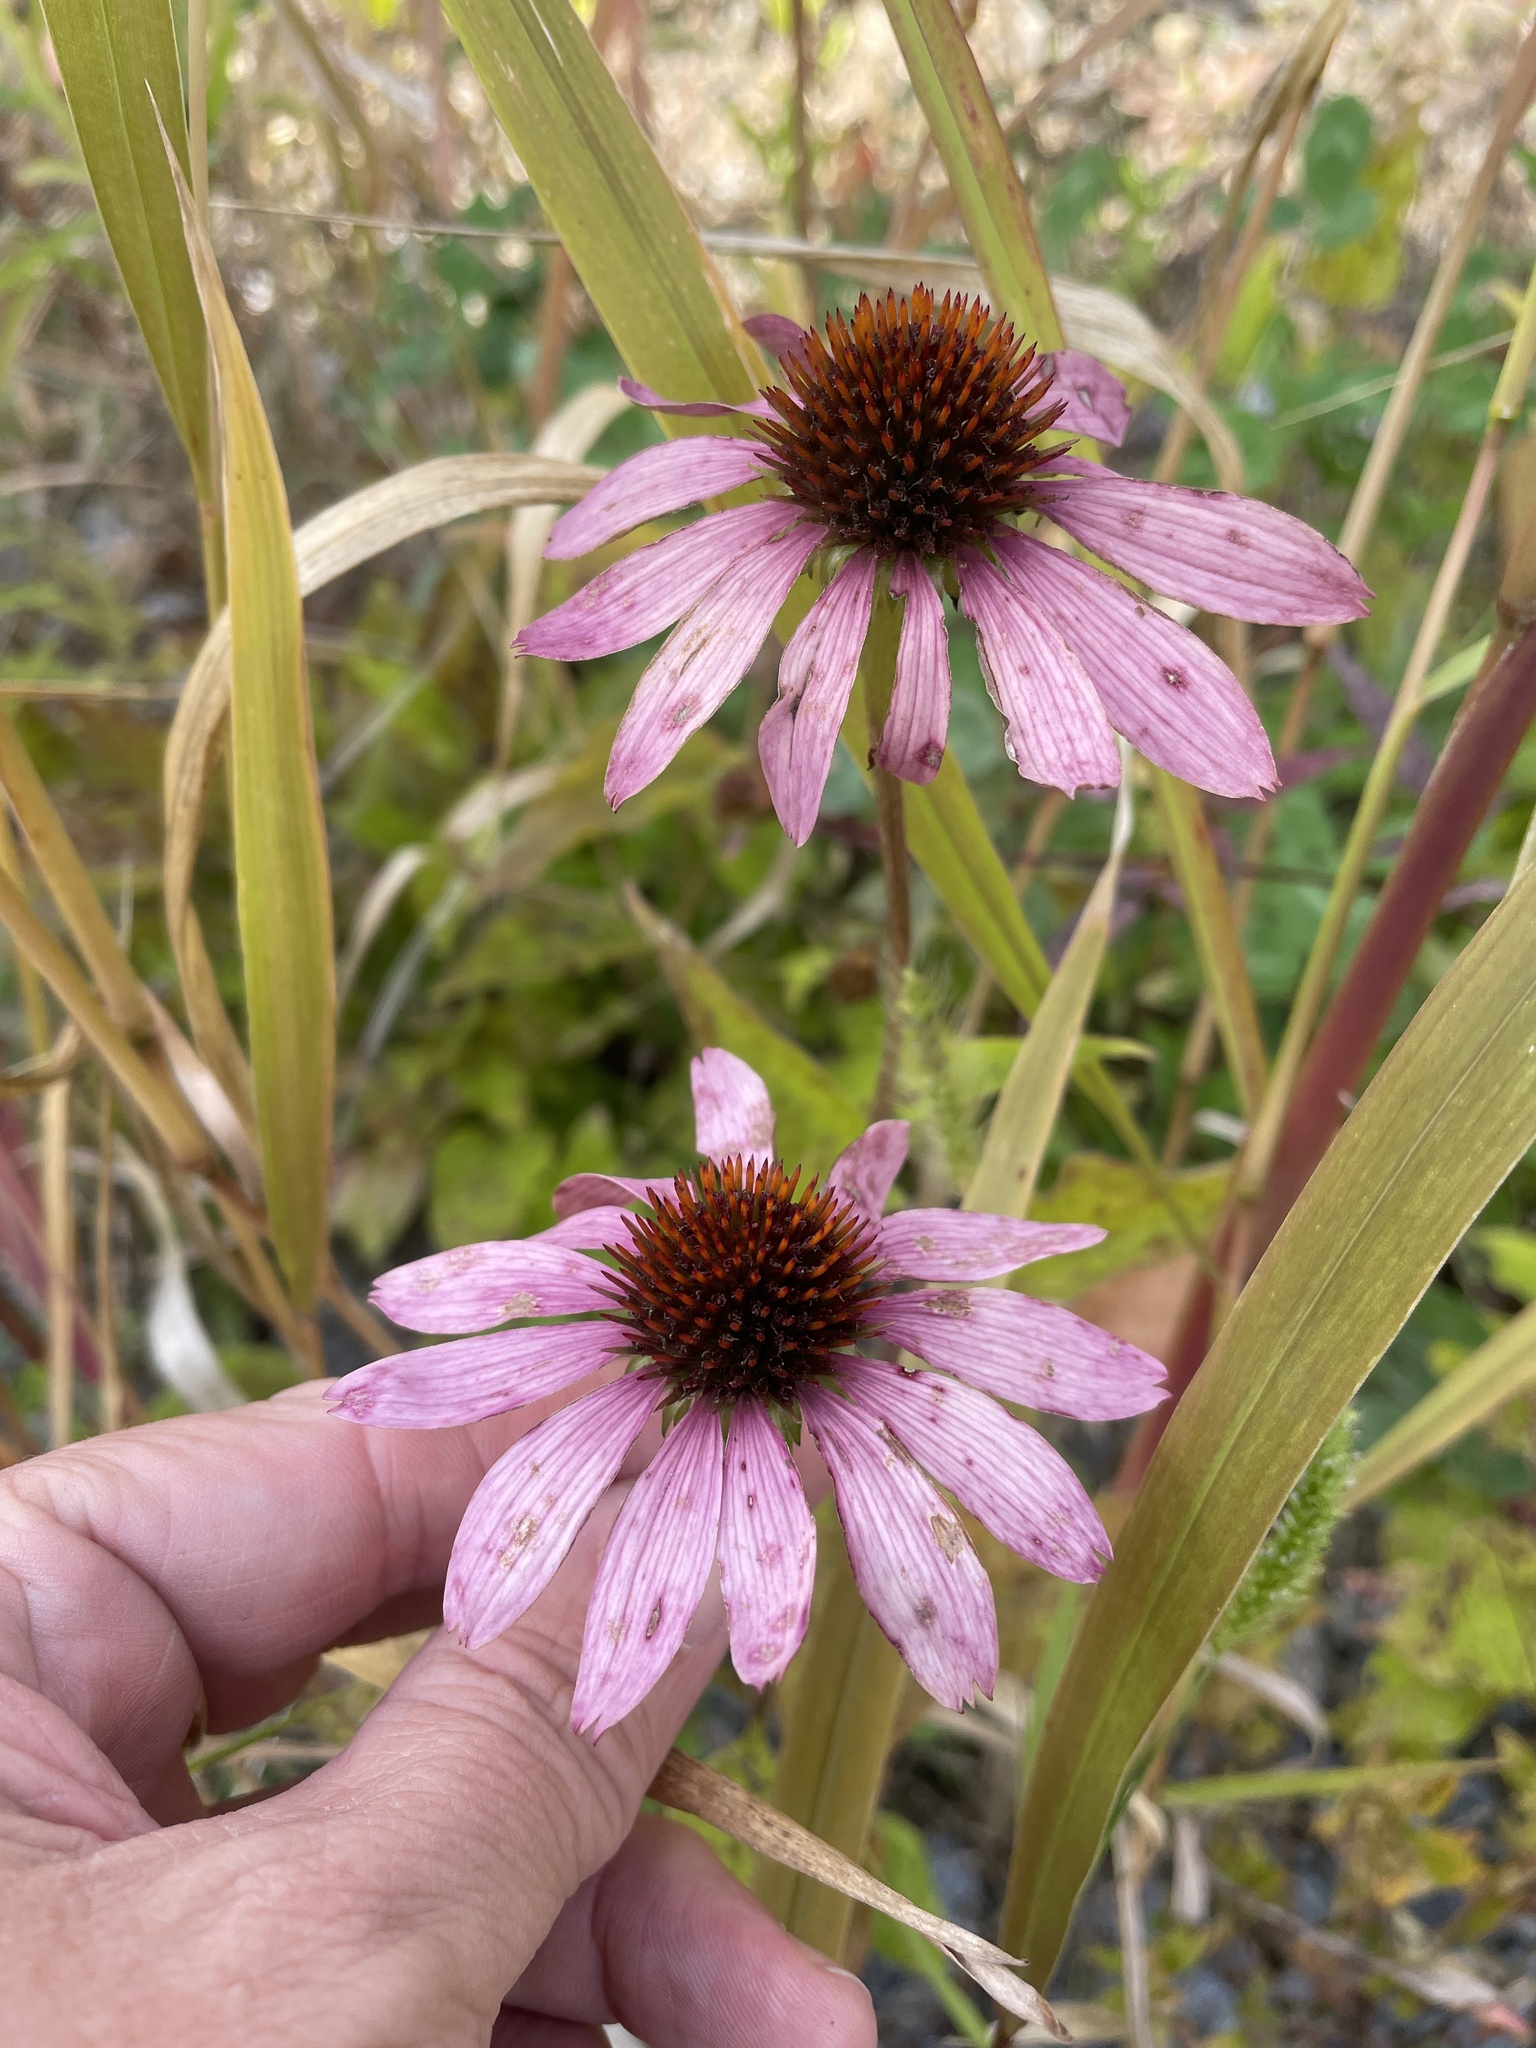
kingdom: Plantae
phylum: Tracheophyta
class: Magnoliopsida
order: Asterales
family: Asteraceae
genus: Echinacea
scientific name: Echinacea purpurea
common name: Broad-leaved purple coneflower
